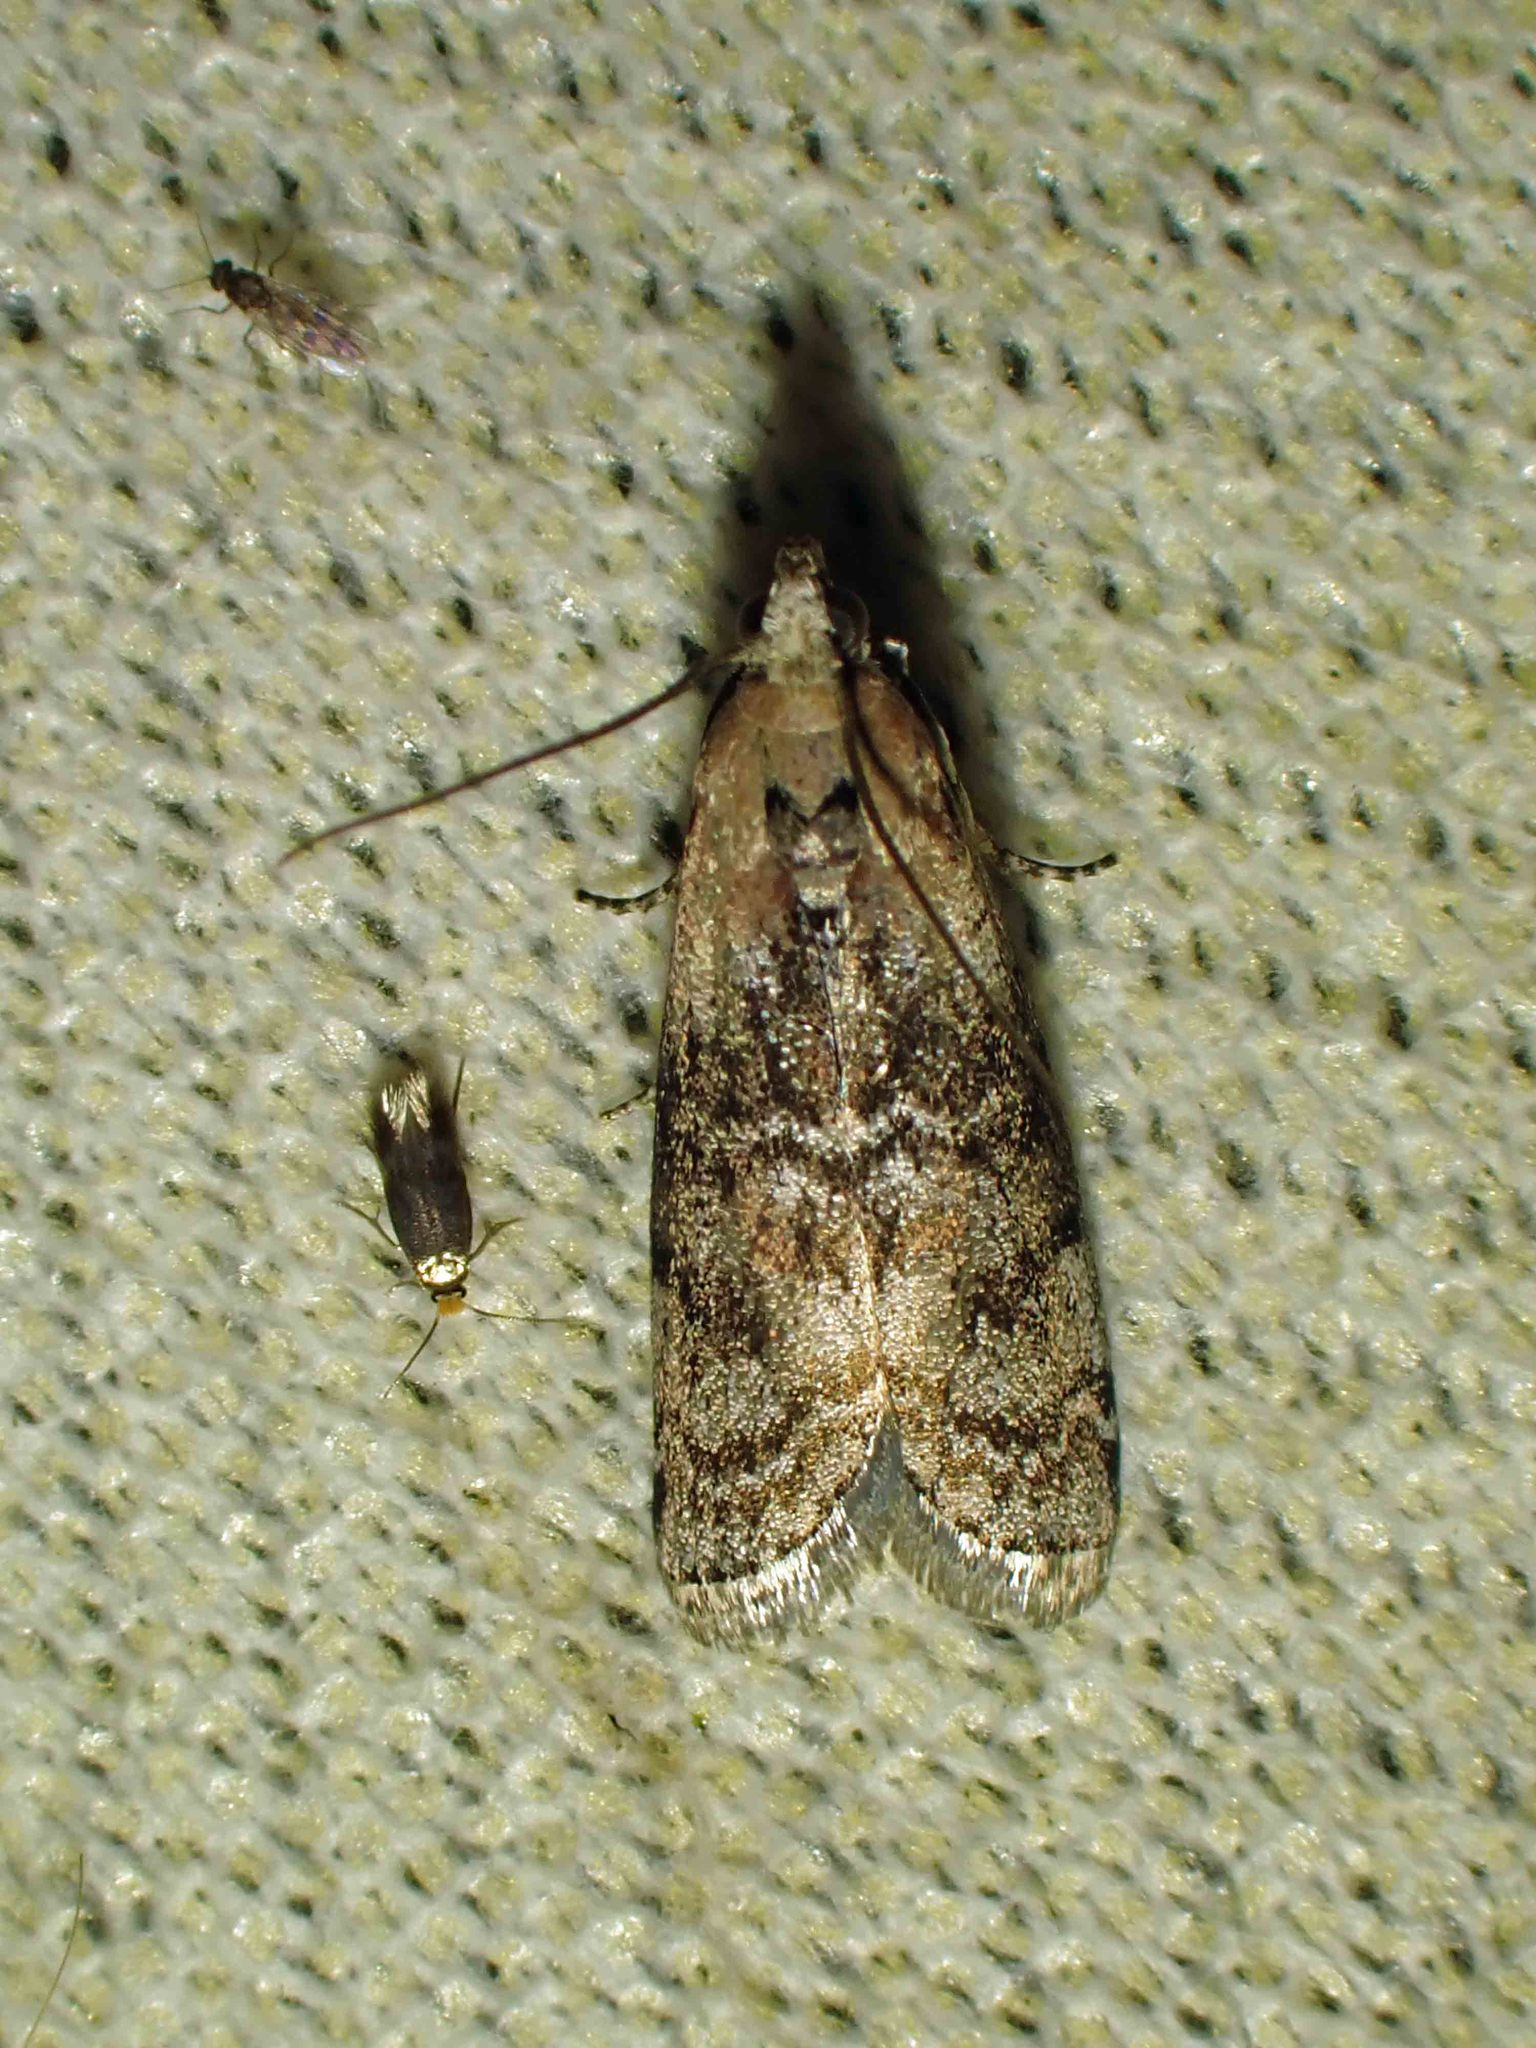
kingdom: Animalia
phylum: Arthropoda
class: Insecta
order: Lepidoptera
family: Pyralidae
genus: Glyptocera
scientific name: Glyptocera consobrinella
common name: Viburnum glyptocera moth
